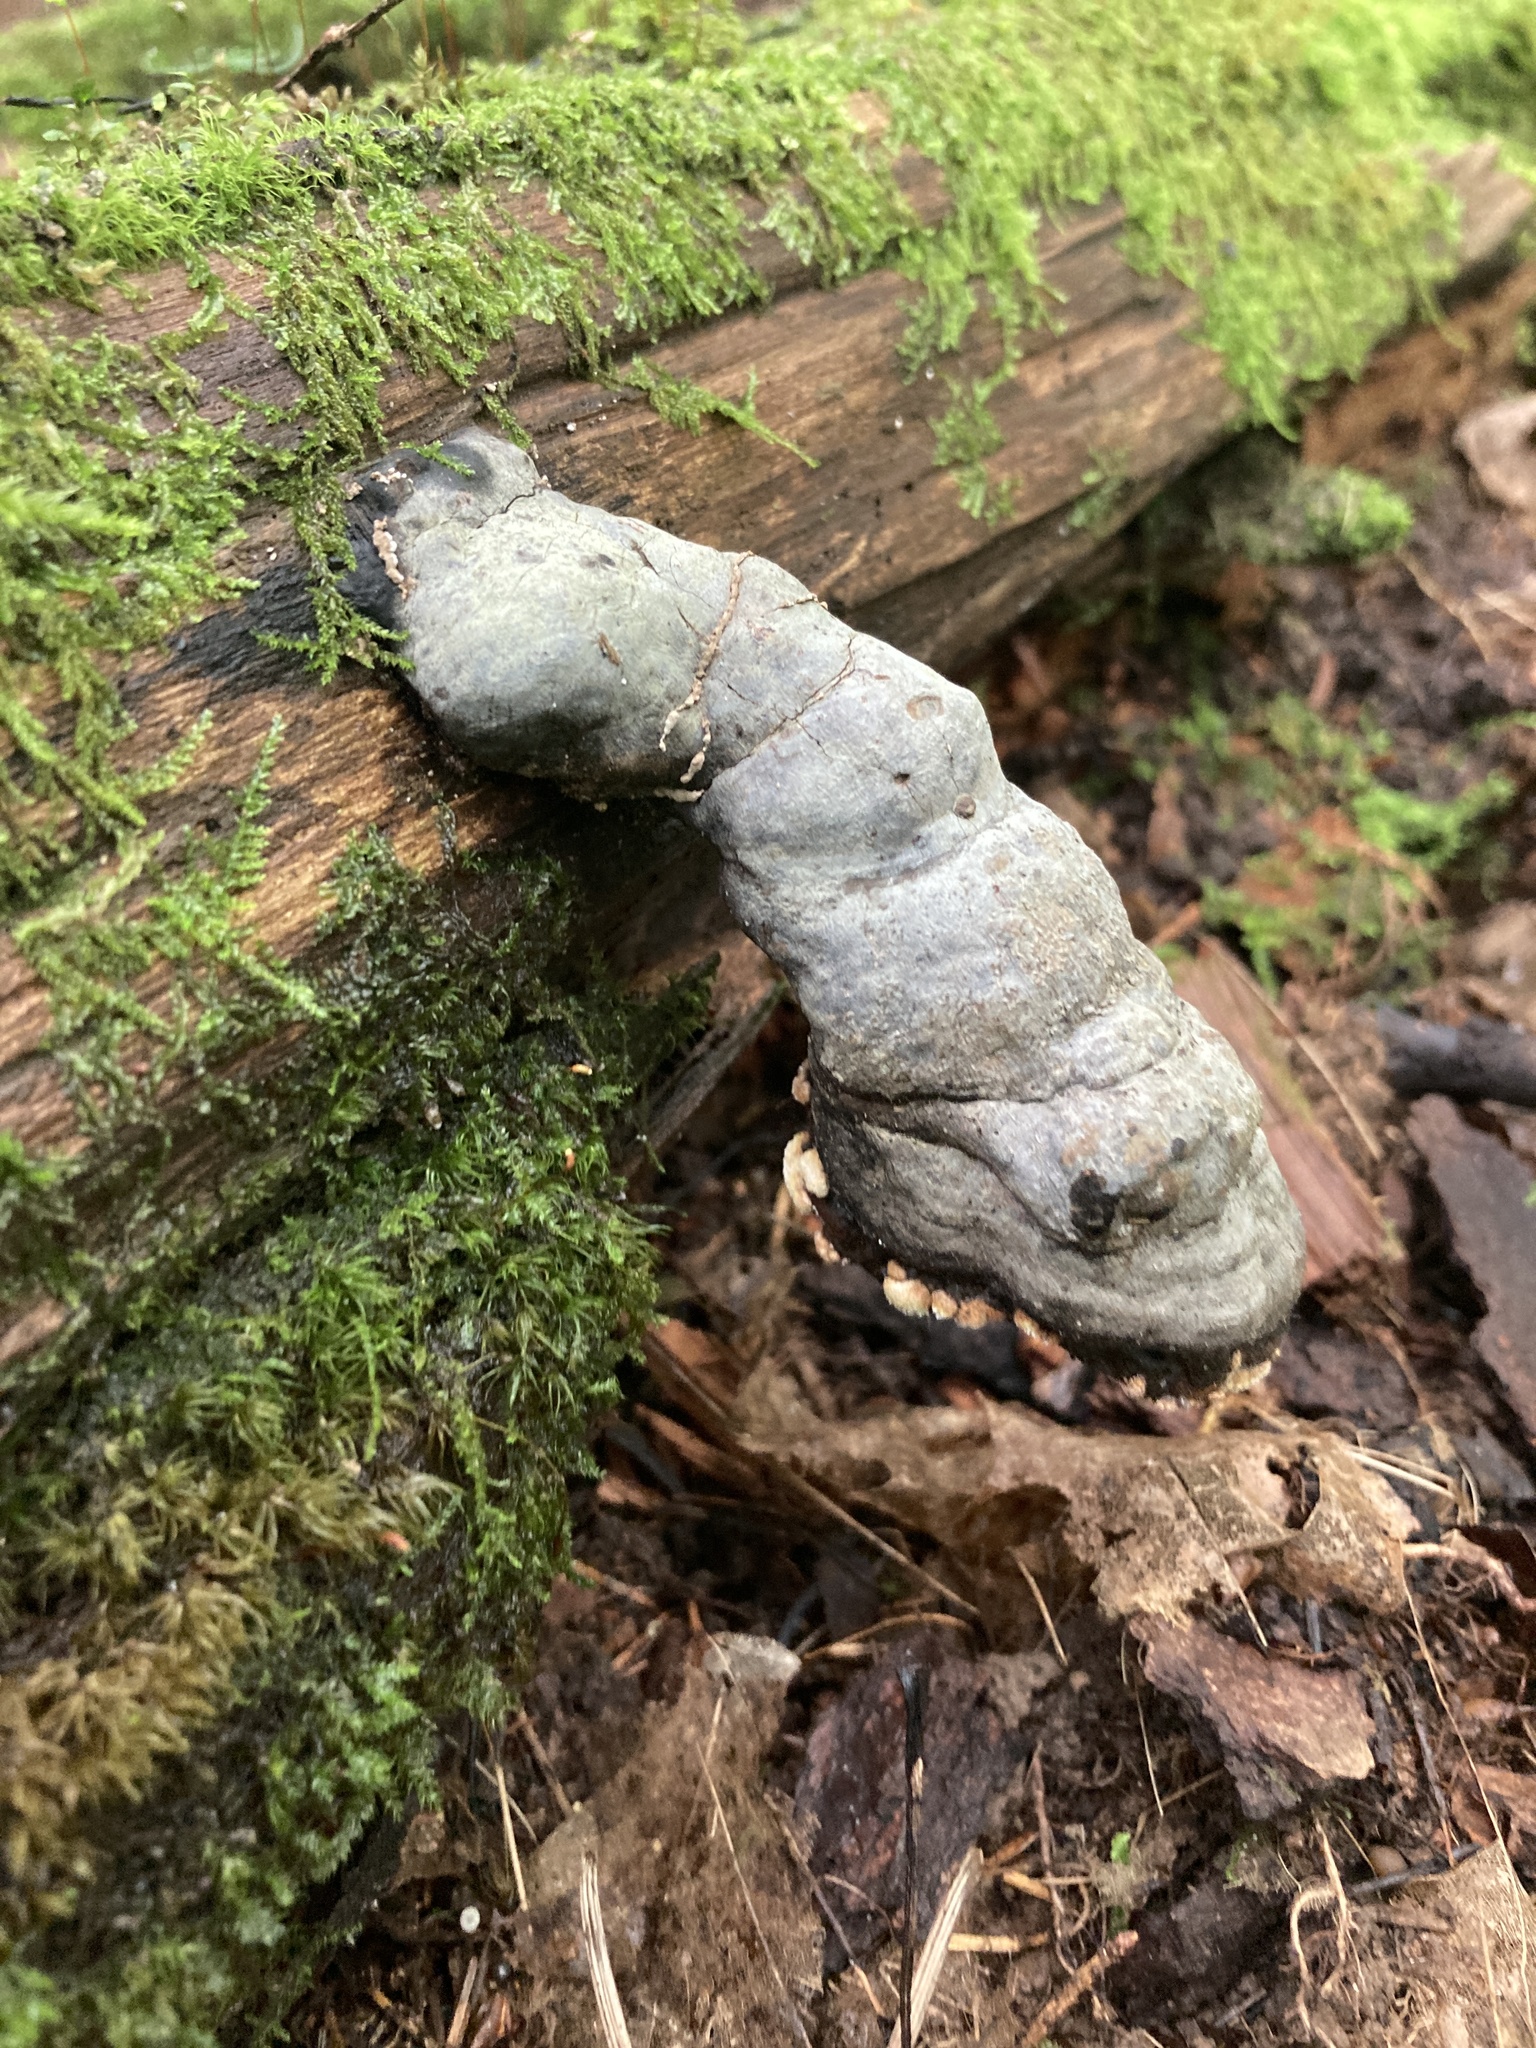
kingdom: Fungi
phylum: Basidiomycota
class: Agaricomycetes
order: Polyporales
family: Polyporaceae
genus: Fomes
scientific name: Fomes fomentarius
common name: Hoof fungus
